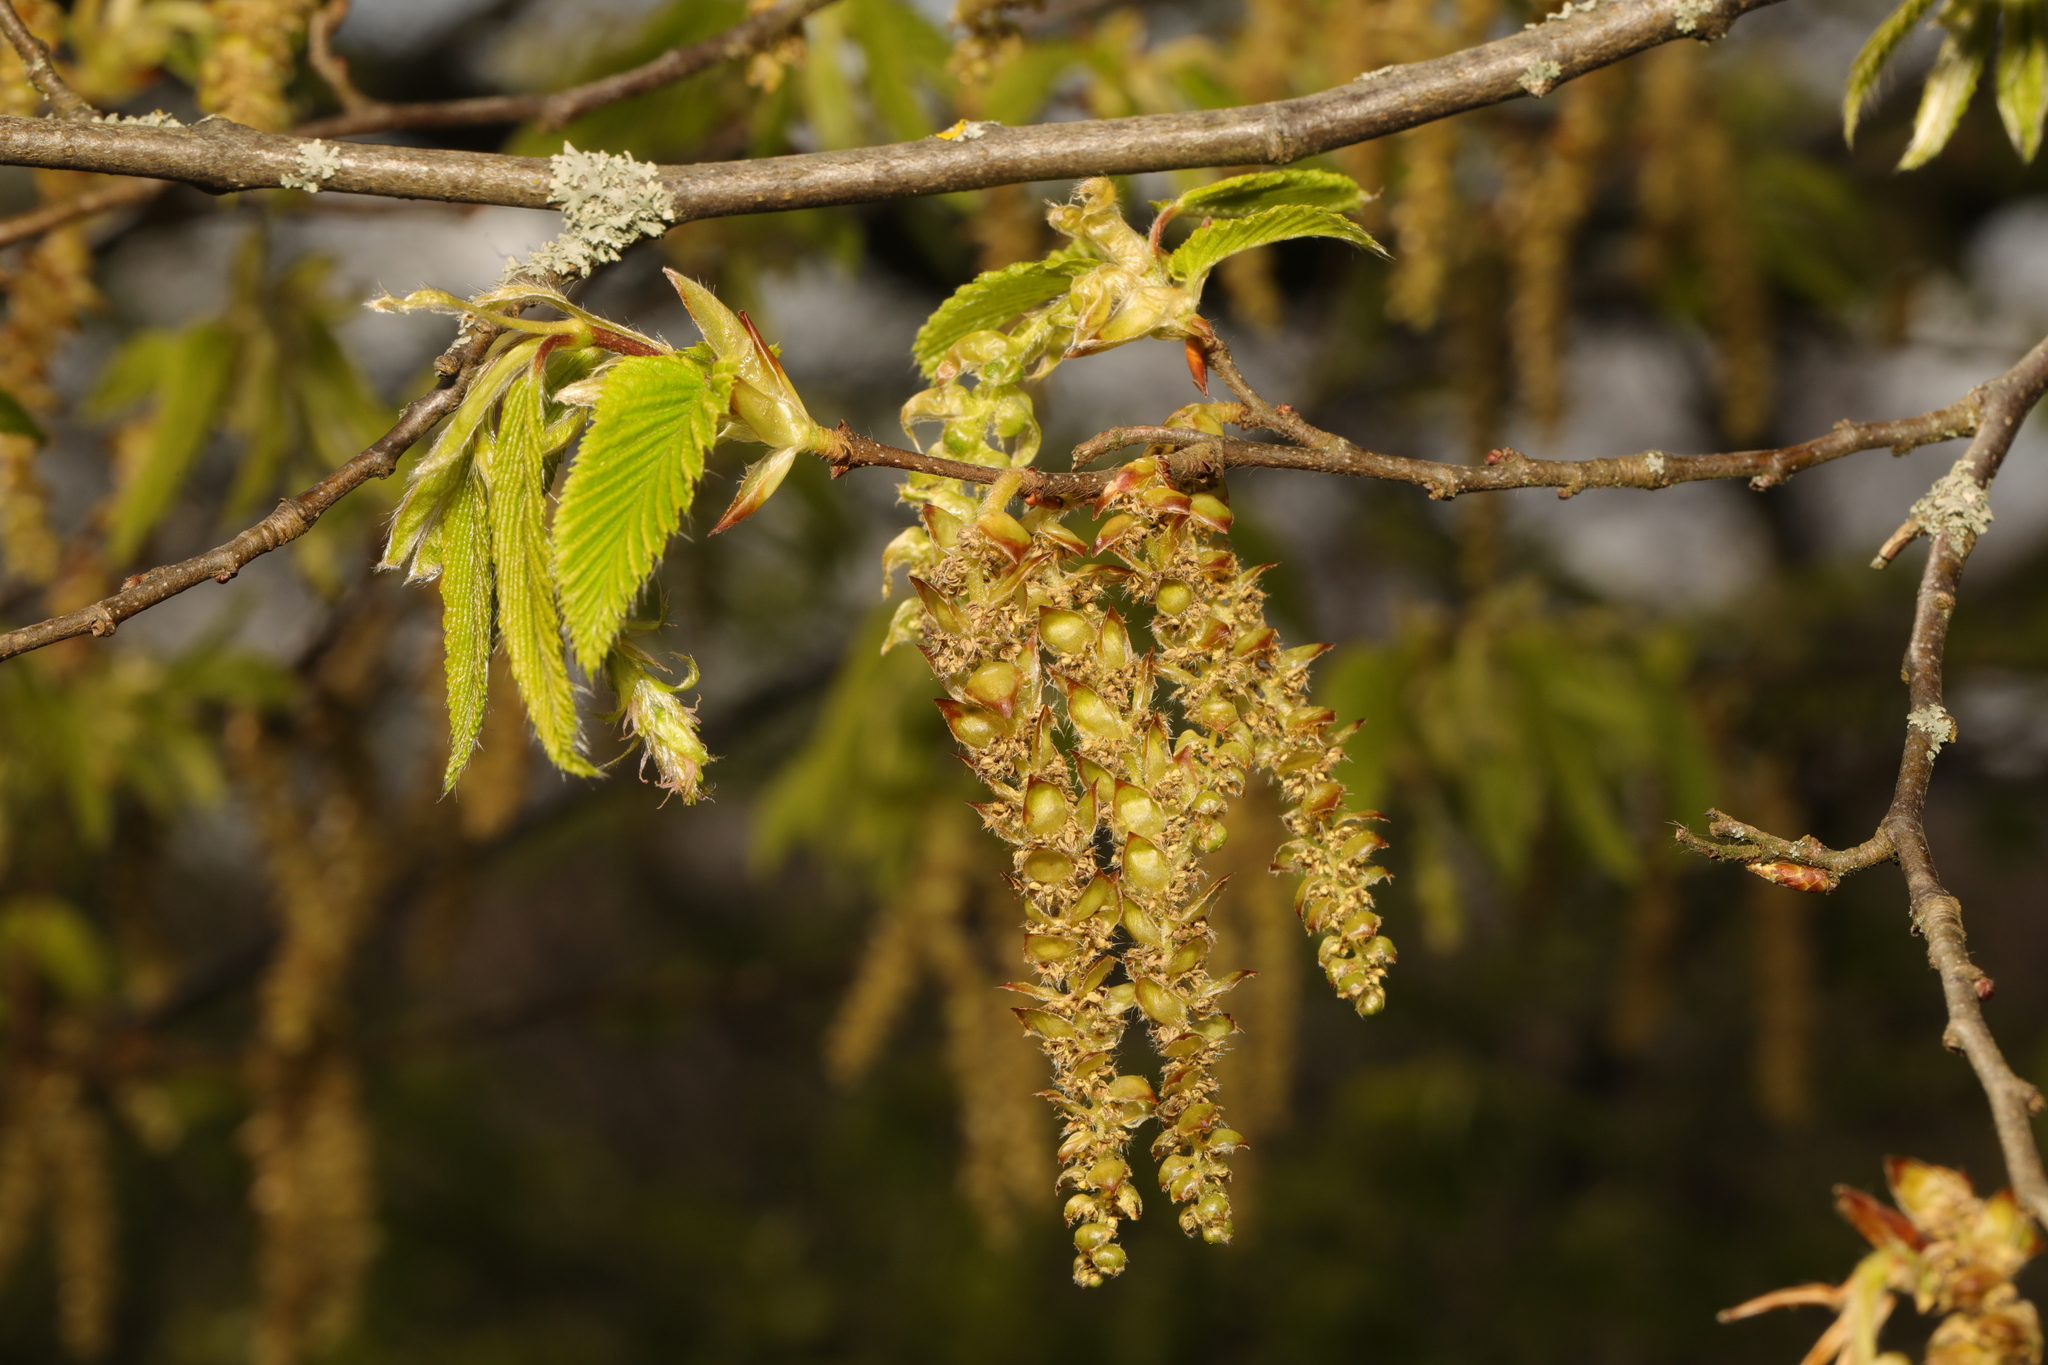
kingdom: Plantae
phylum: Tracheophyta
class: Magnoliopsida
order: Fagales
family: Betulaceae
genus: Carpinus
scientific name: Carpinus betulus
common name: Hornbeam
